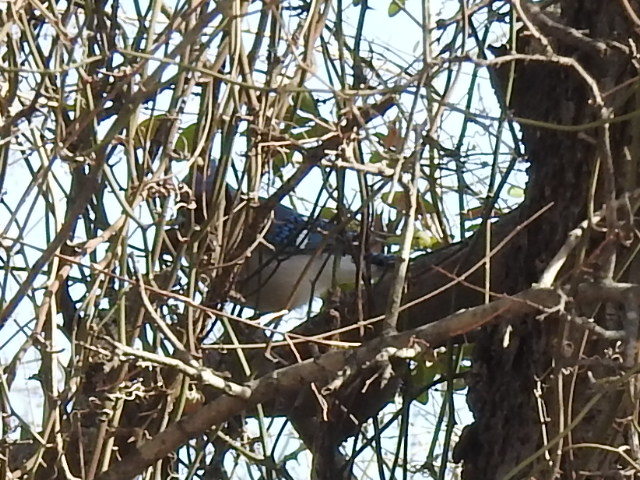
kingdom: Animalia
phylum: Chordata
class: Aves
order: Passeriformes
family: Corvidae
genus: Cyanocitta
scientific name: Cyanocitta cristata
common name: Blue jay
